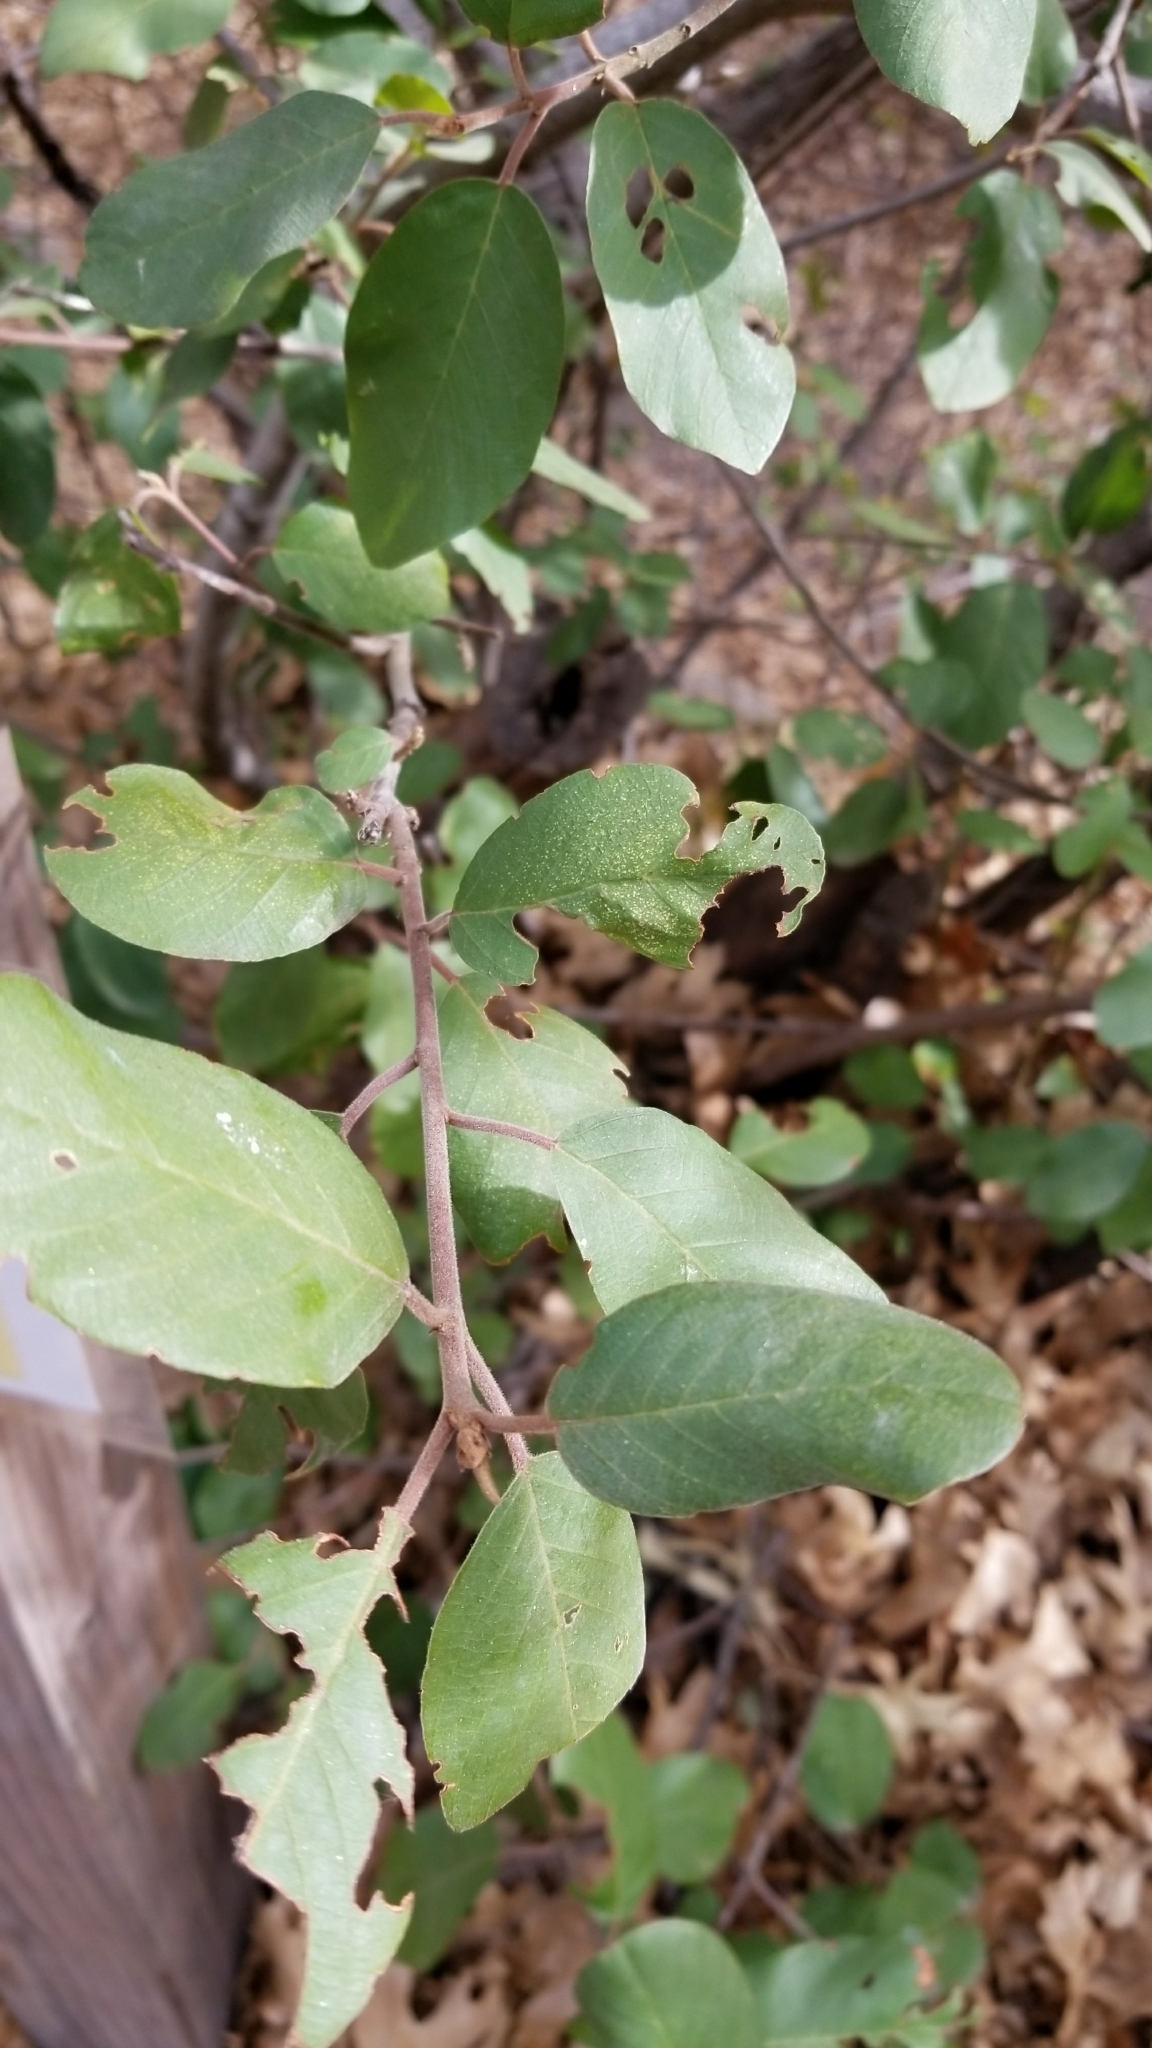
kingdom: Plantae
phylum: Tracheophyta
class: Magnoliopsida
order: Rosales
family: Rhamnaceae
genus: Frangula
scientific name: Frangula californica
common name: California buckthorn
